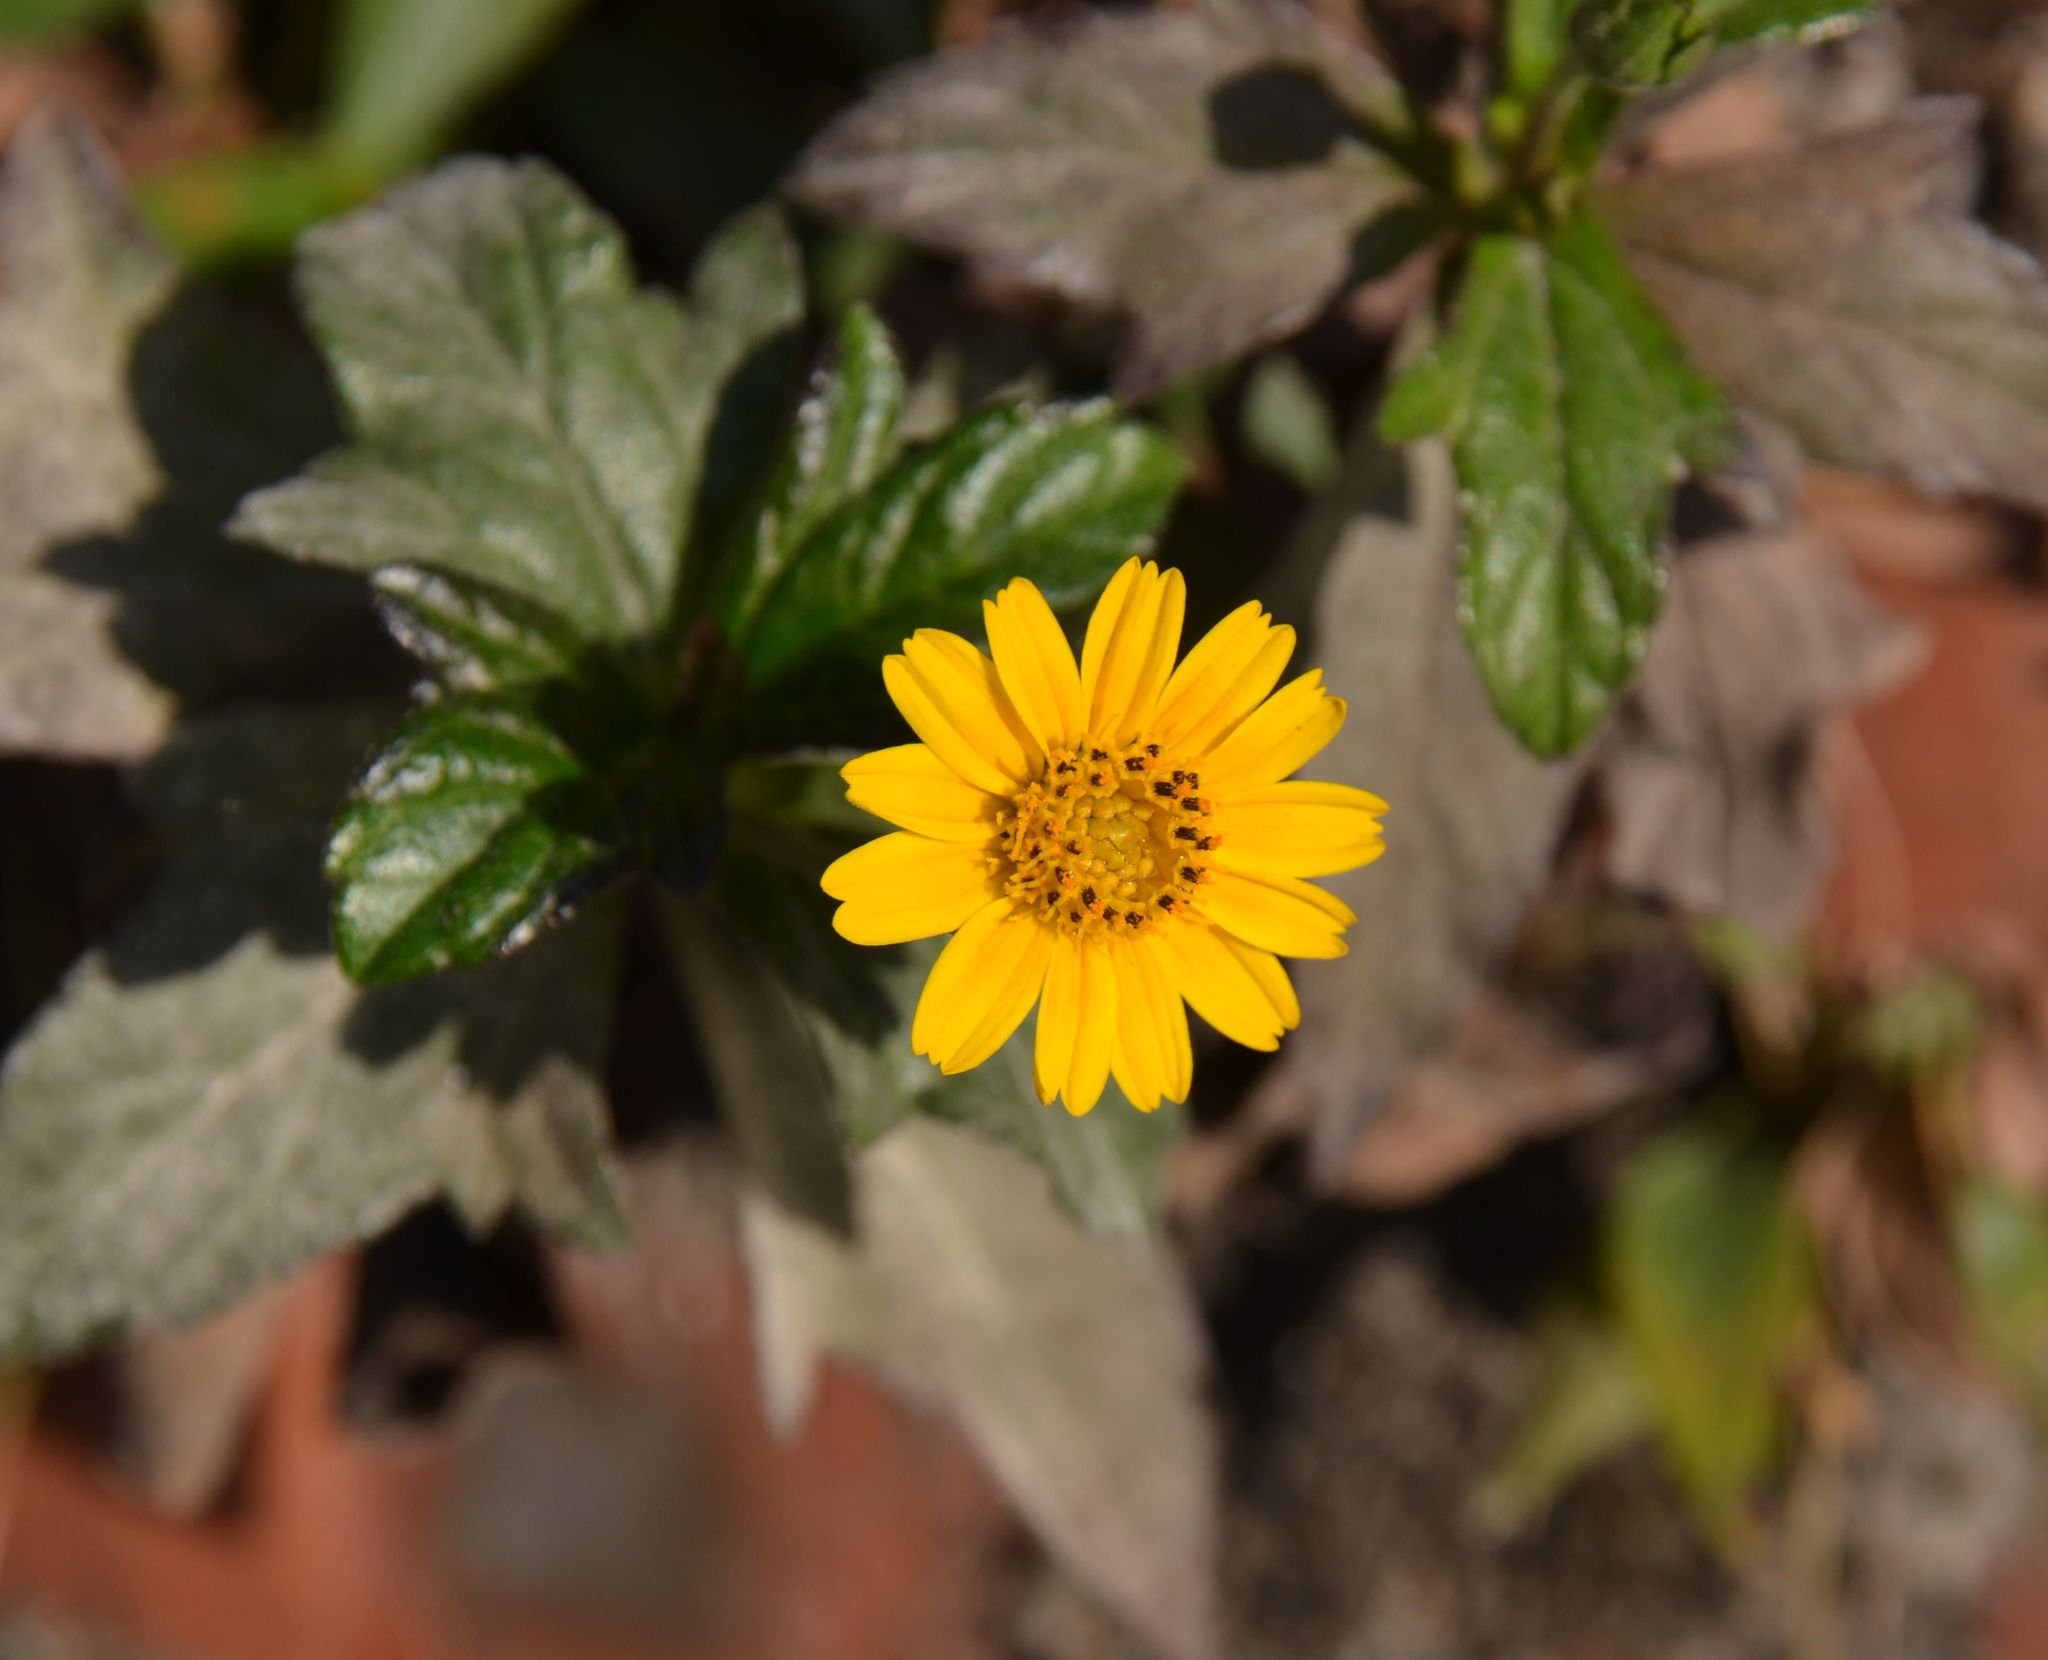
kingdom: Plantae
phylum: Tracheophyta
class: Magnoliopsida
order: Asterales
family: Asteraceae
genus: Sphagneticola
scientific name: Sphagneticola trilobata
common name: Bay biscayne creeping-oxeye
